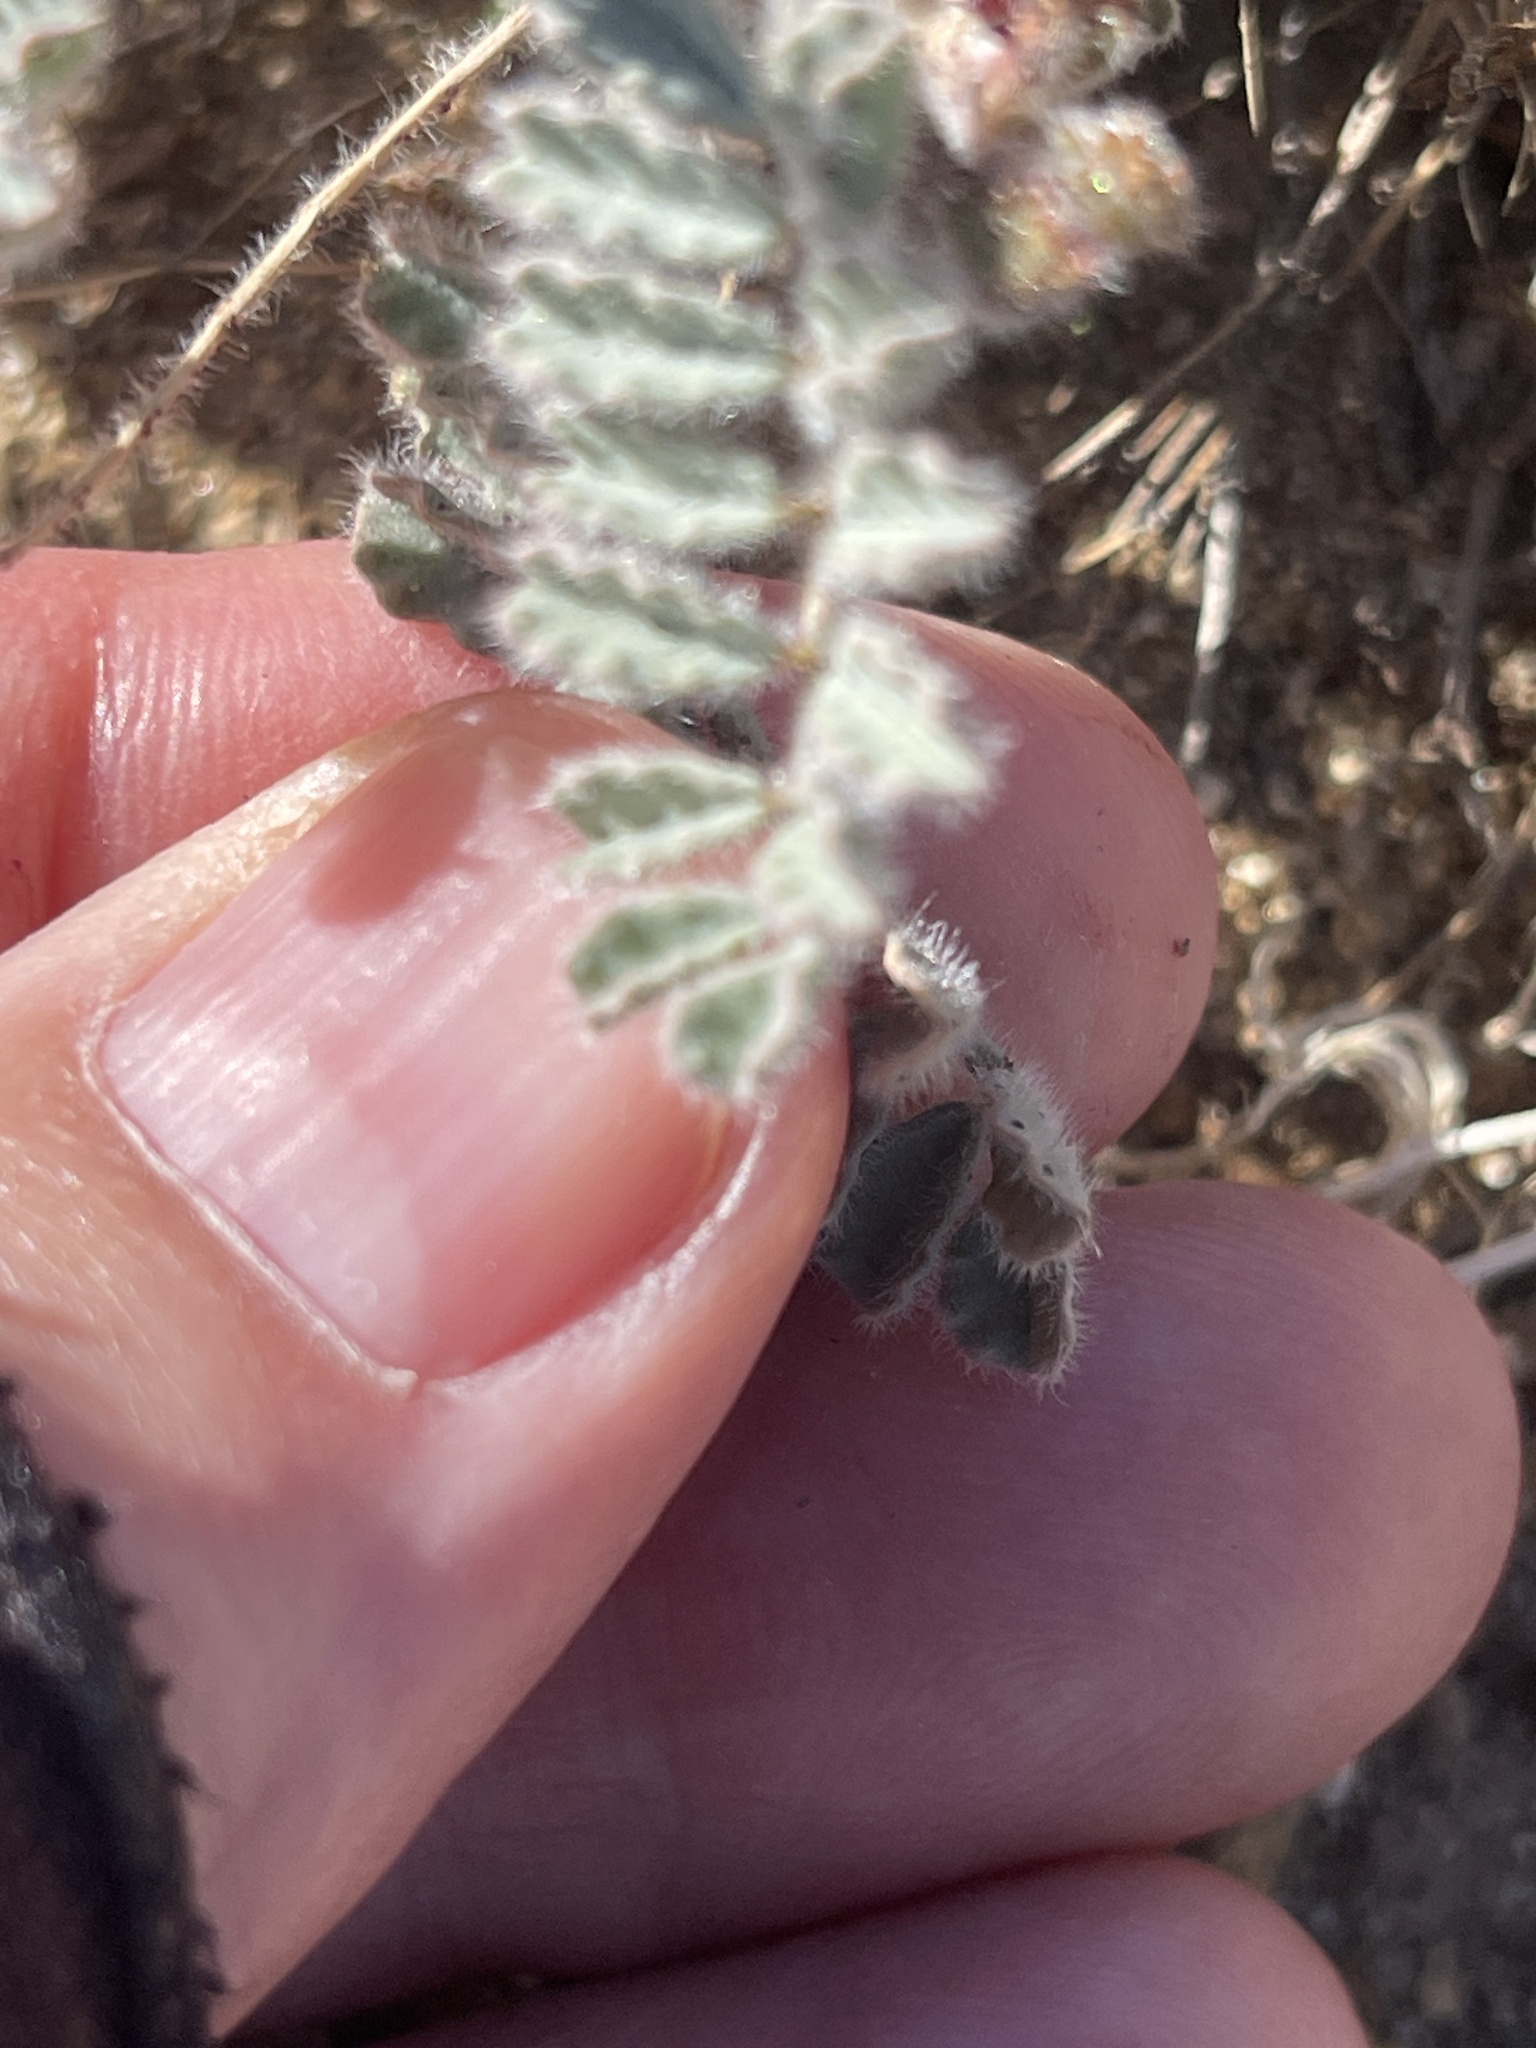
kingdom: Plantae
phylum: Tracheophyta
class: Magnoliopsida
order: Fabales
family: Fabaceae
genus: Dalea
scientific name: Dalea mollissima
